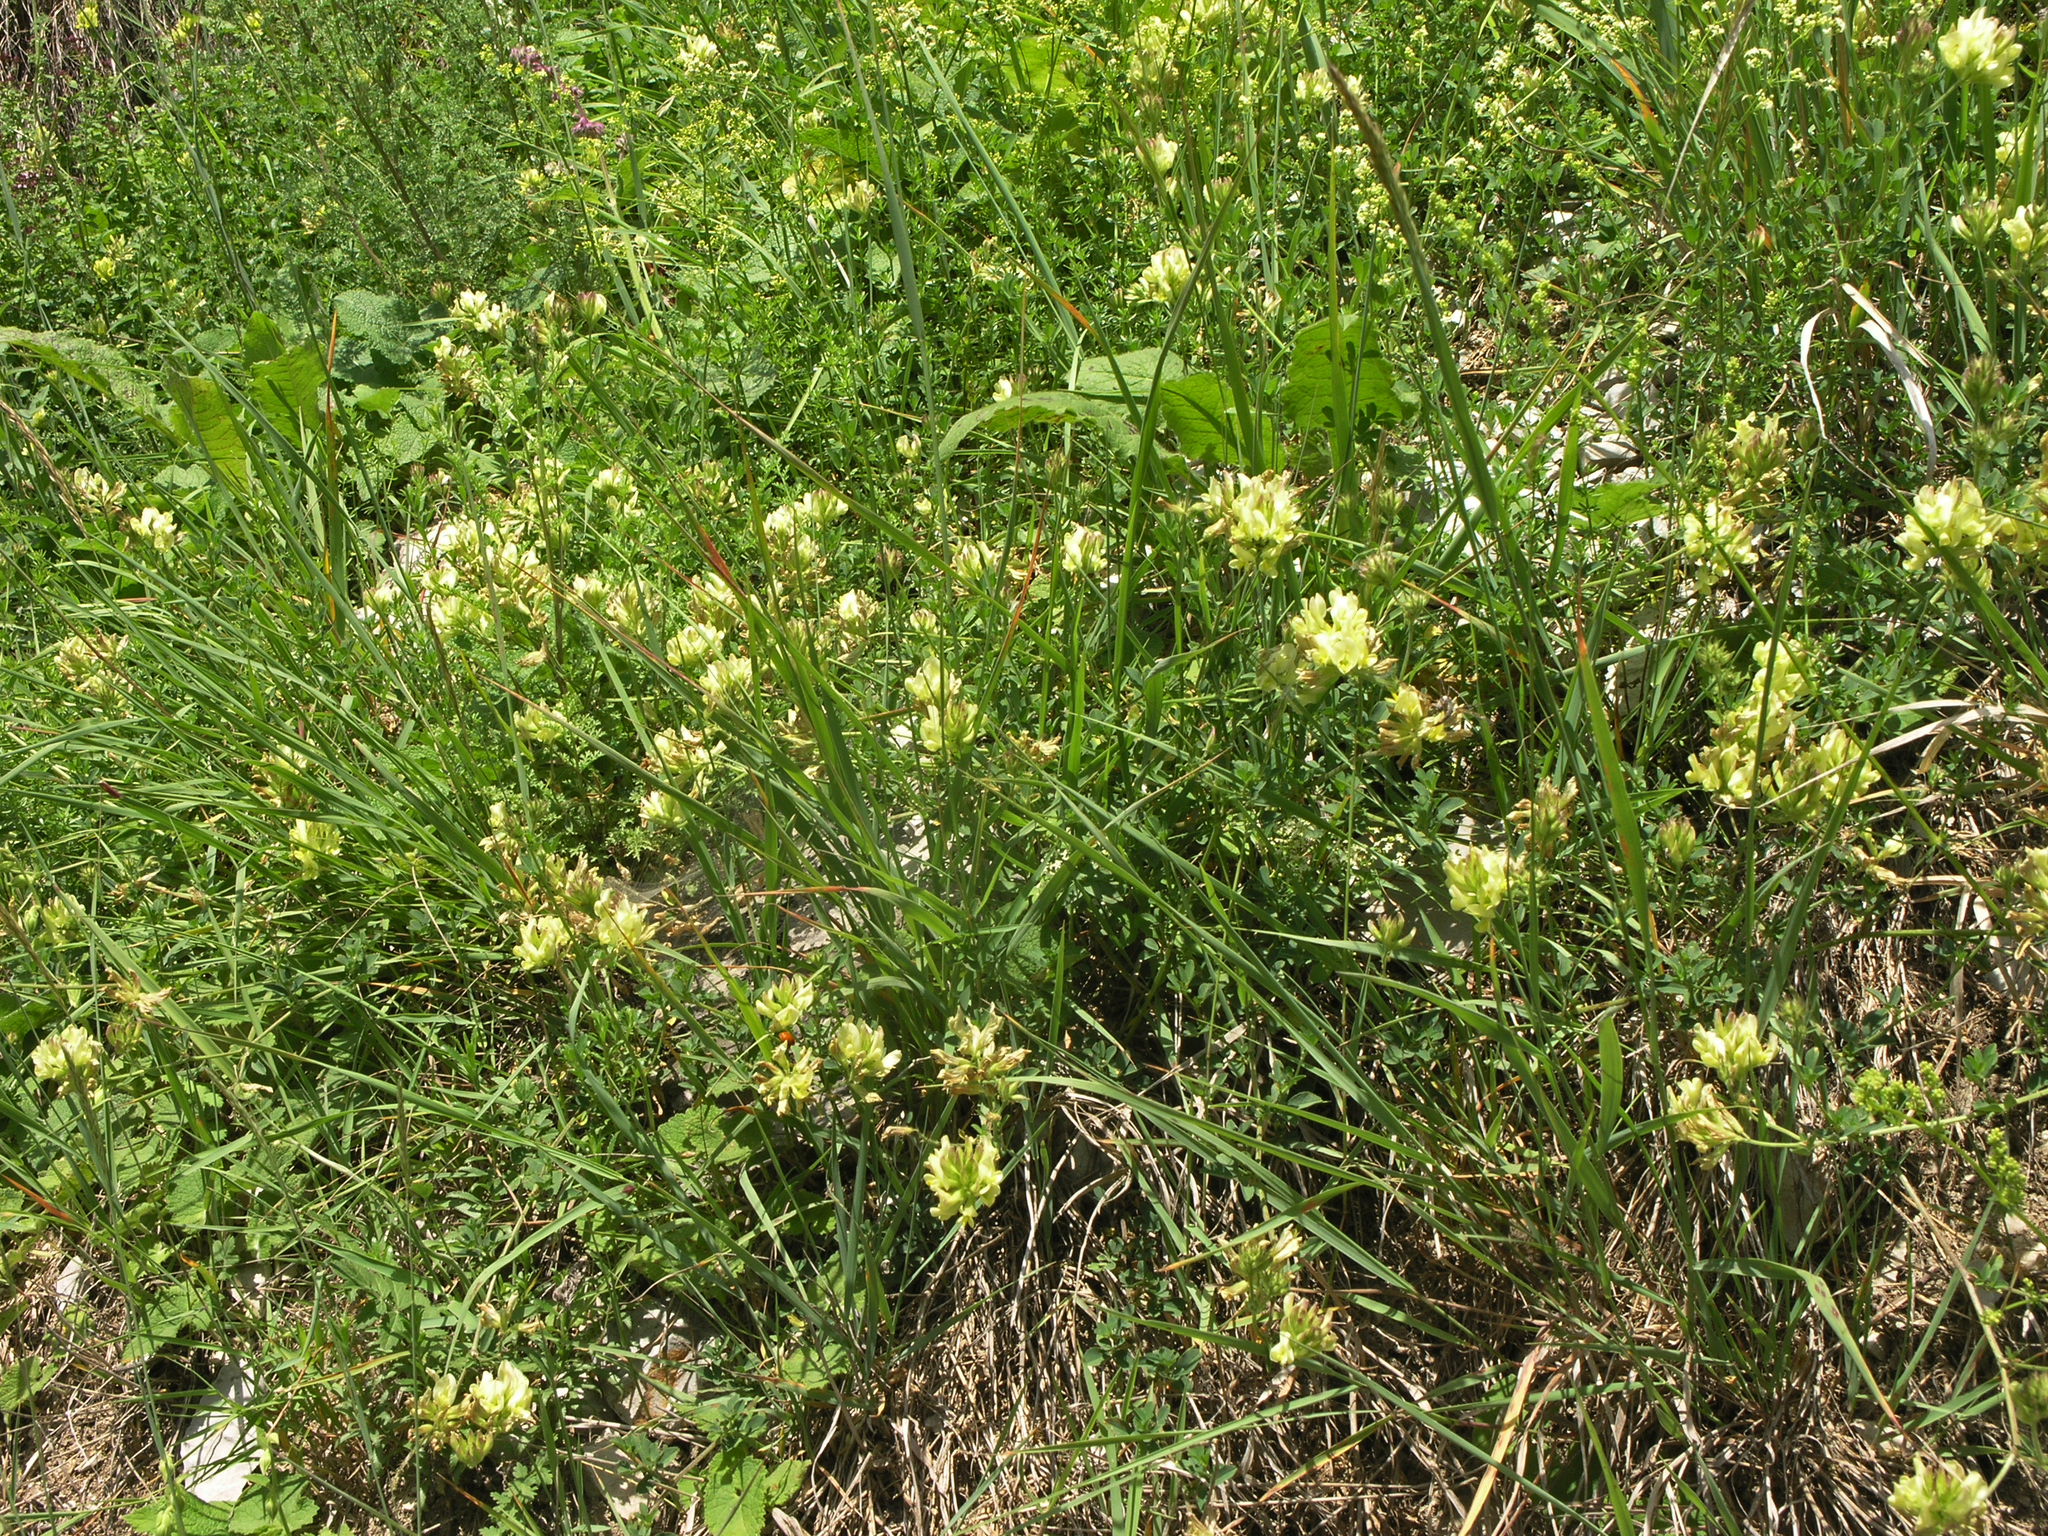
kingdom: Plantae
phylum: Tracheophyta
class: Magnoliopsida
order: Fabales
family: Fabaceae
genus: Astragalus
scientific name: Astragalus calycinus
